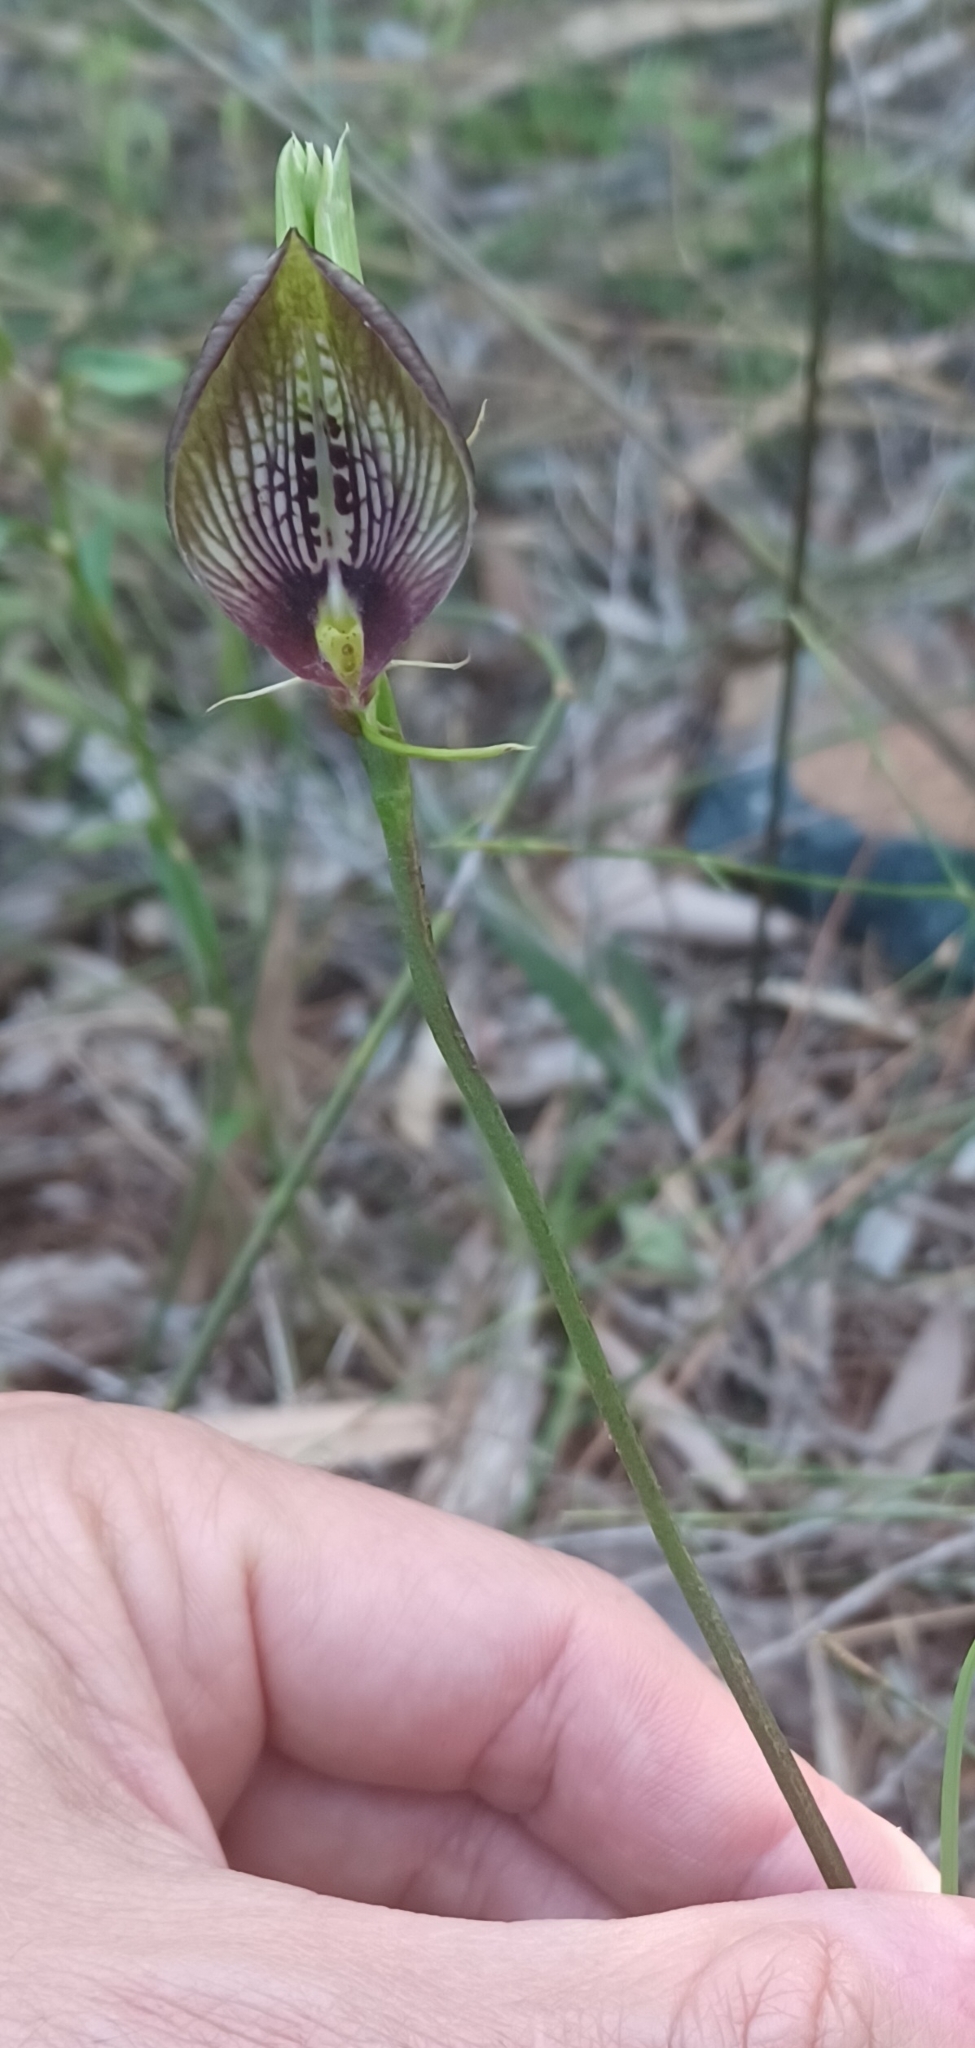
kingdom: Plantae
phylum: Tracheophyta
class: Liliopsida
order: Asparagales
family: Orchidaceae
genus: Cryptostylis
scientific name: Cryptostylis erecta
